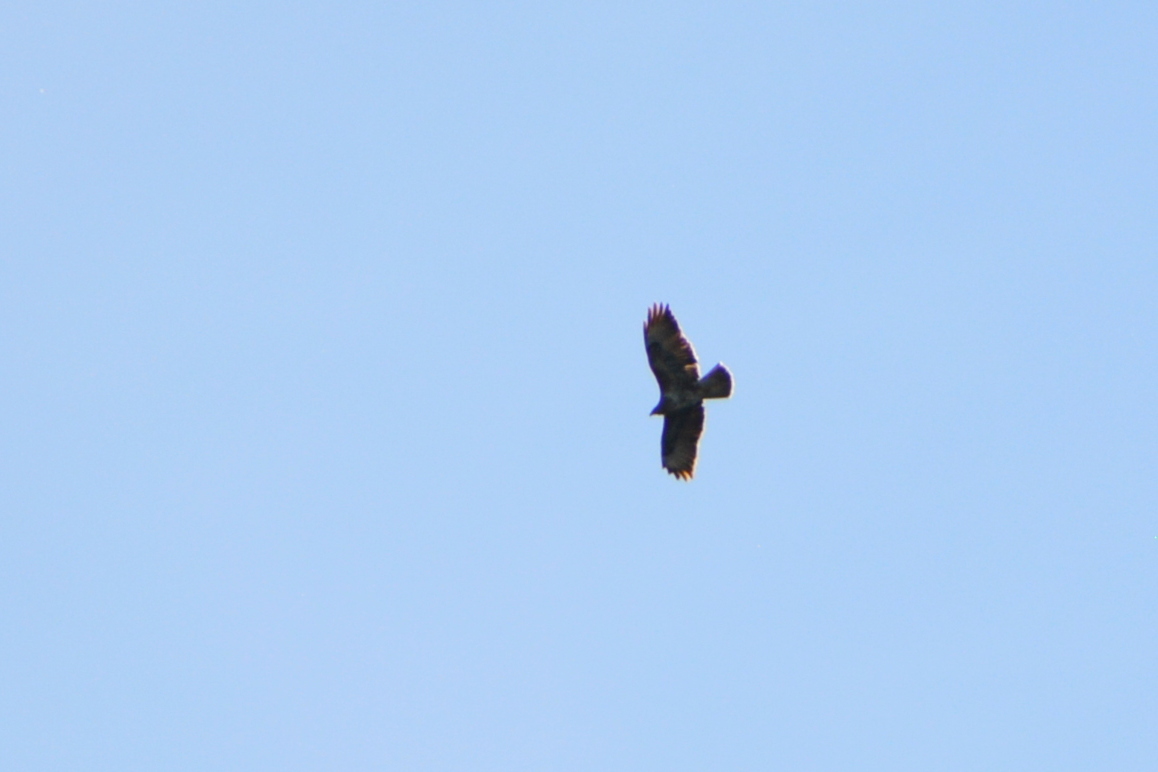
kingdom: Animalia
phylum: Chordata
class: Aves
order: Accipitriformes
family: Accipitridae
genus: Buteo
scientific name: Buteo buteo
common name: Common buzzard
